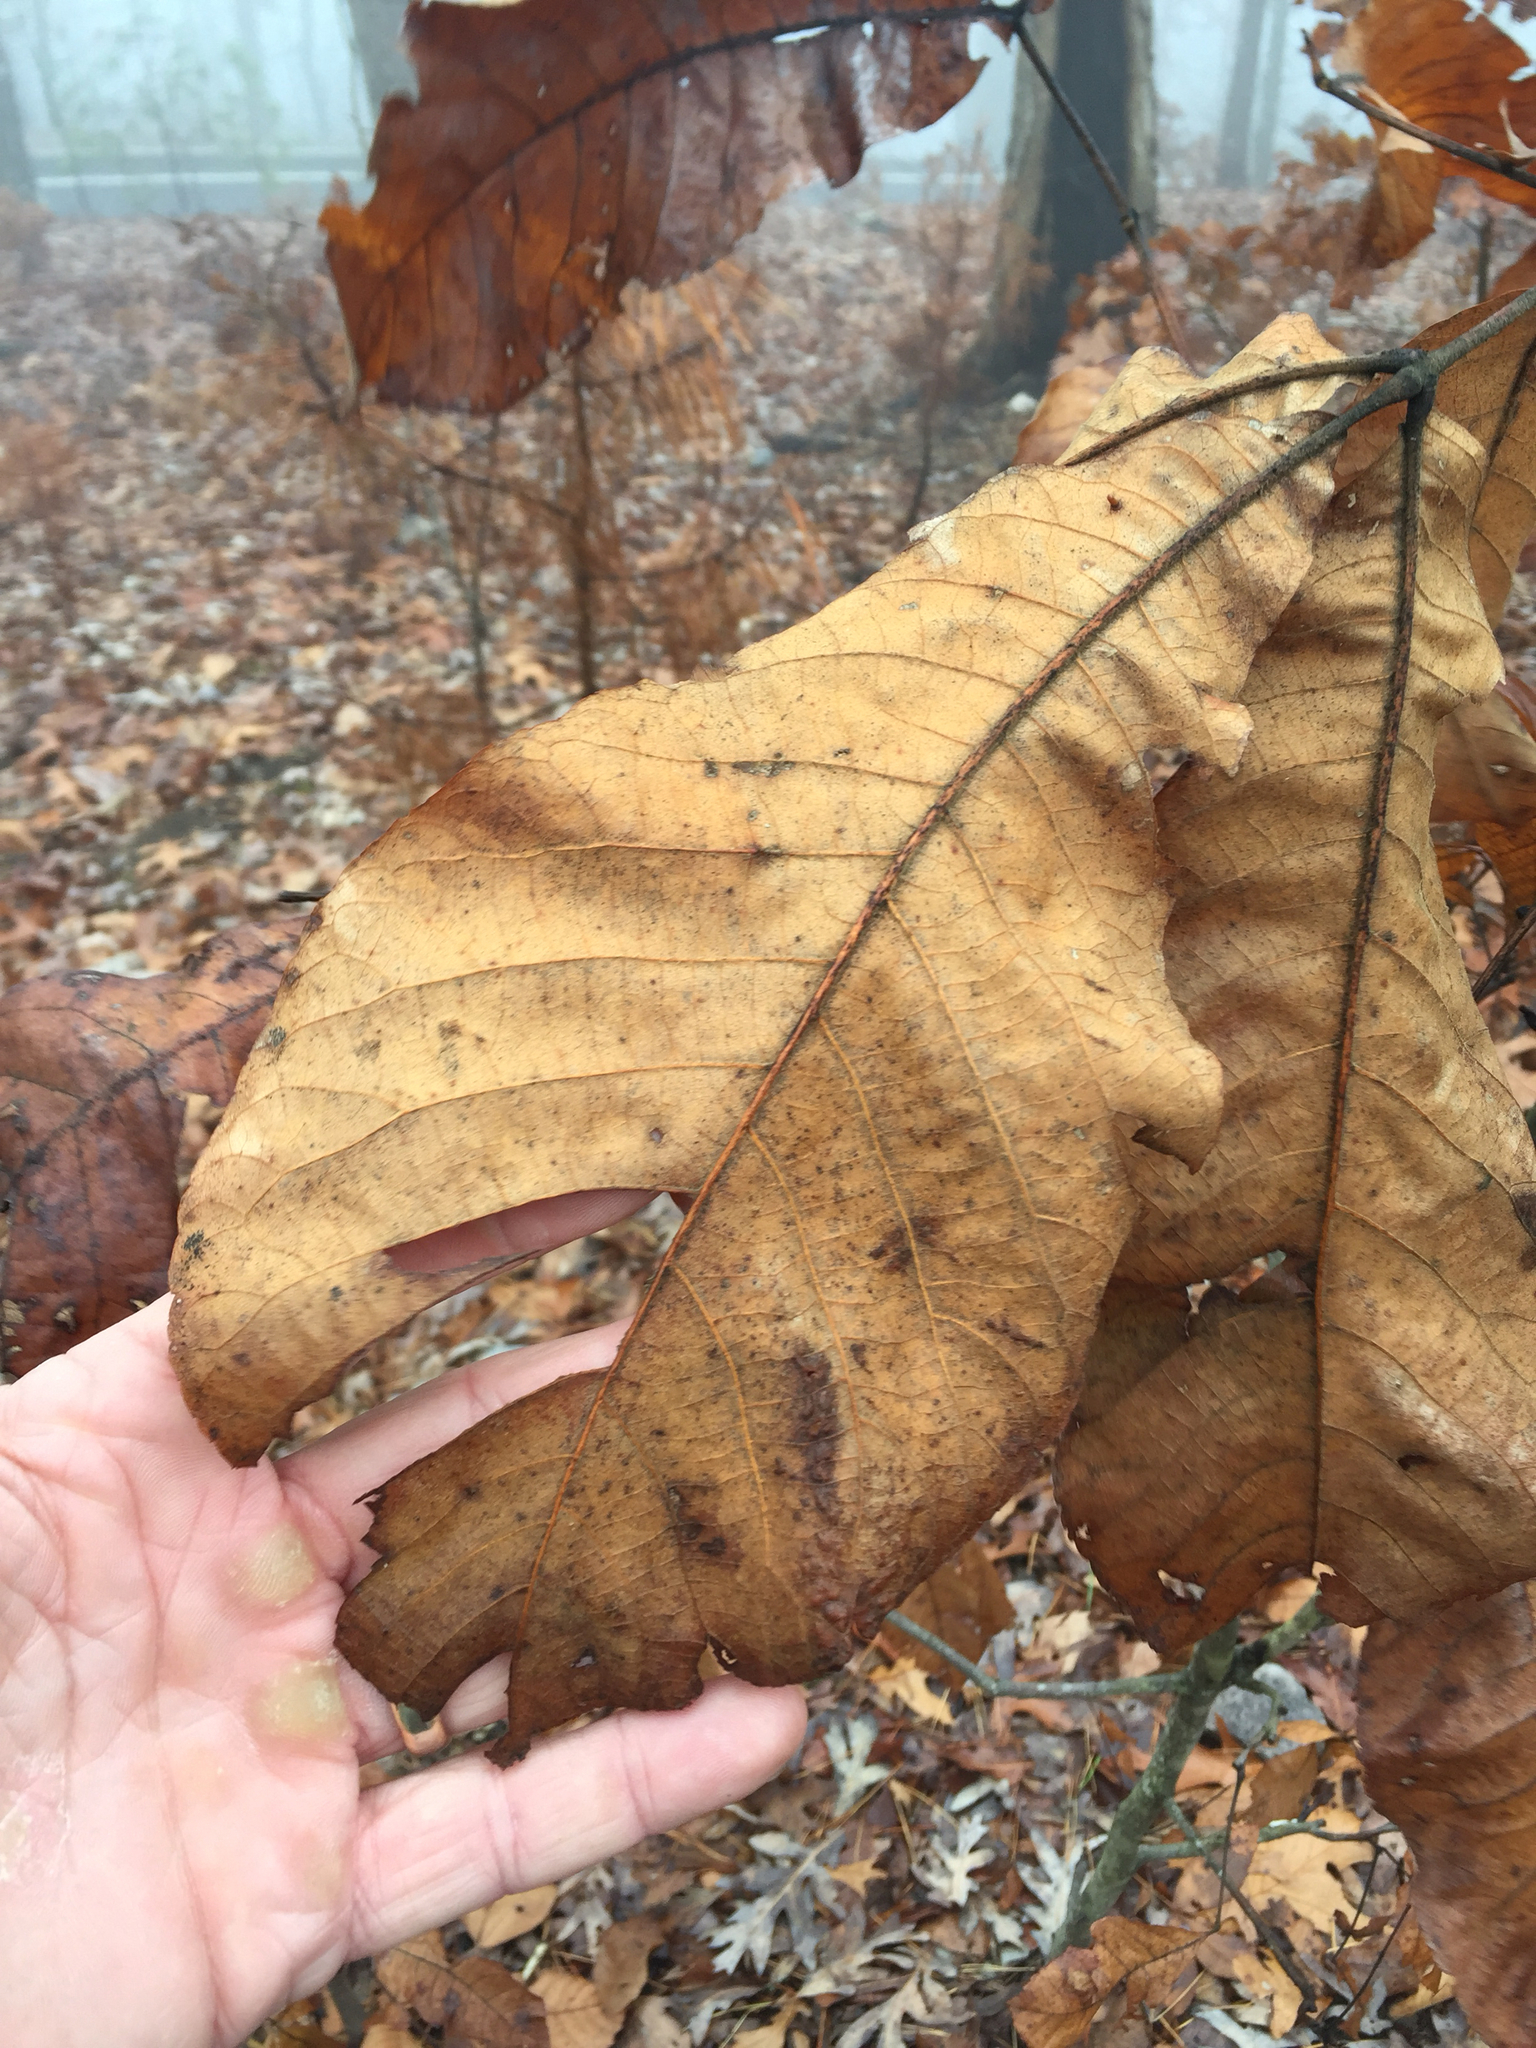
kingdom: Plantae
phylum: Tracheophyta
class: Magnoliopsida
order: Fagales
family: Juglandaceae
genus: Carya
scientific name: Carya ovata
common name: Shagbark hickory
